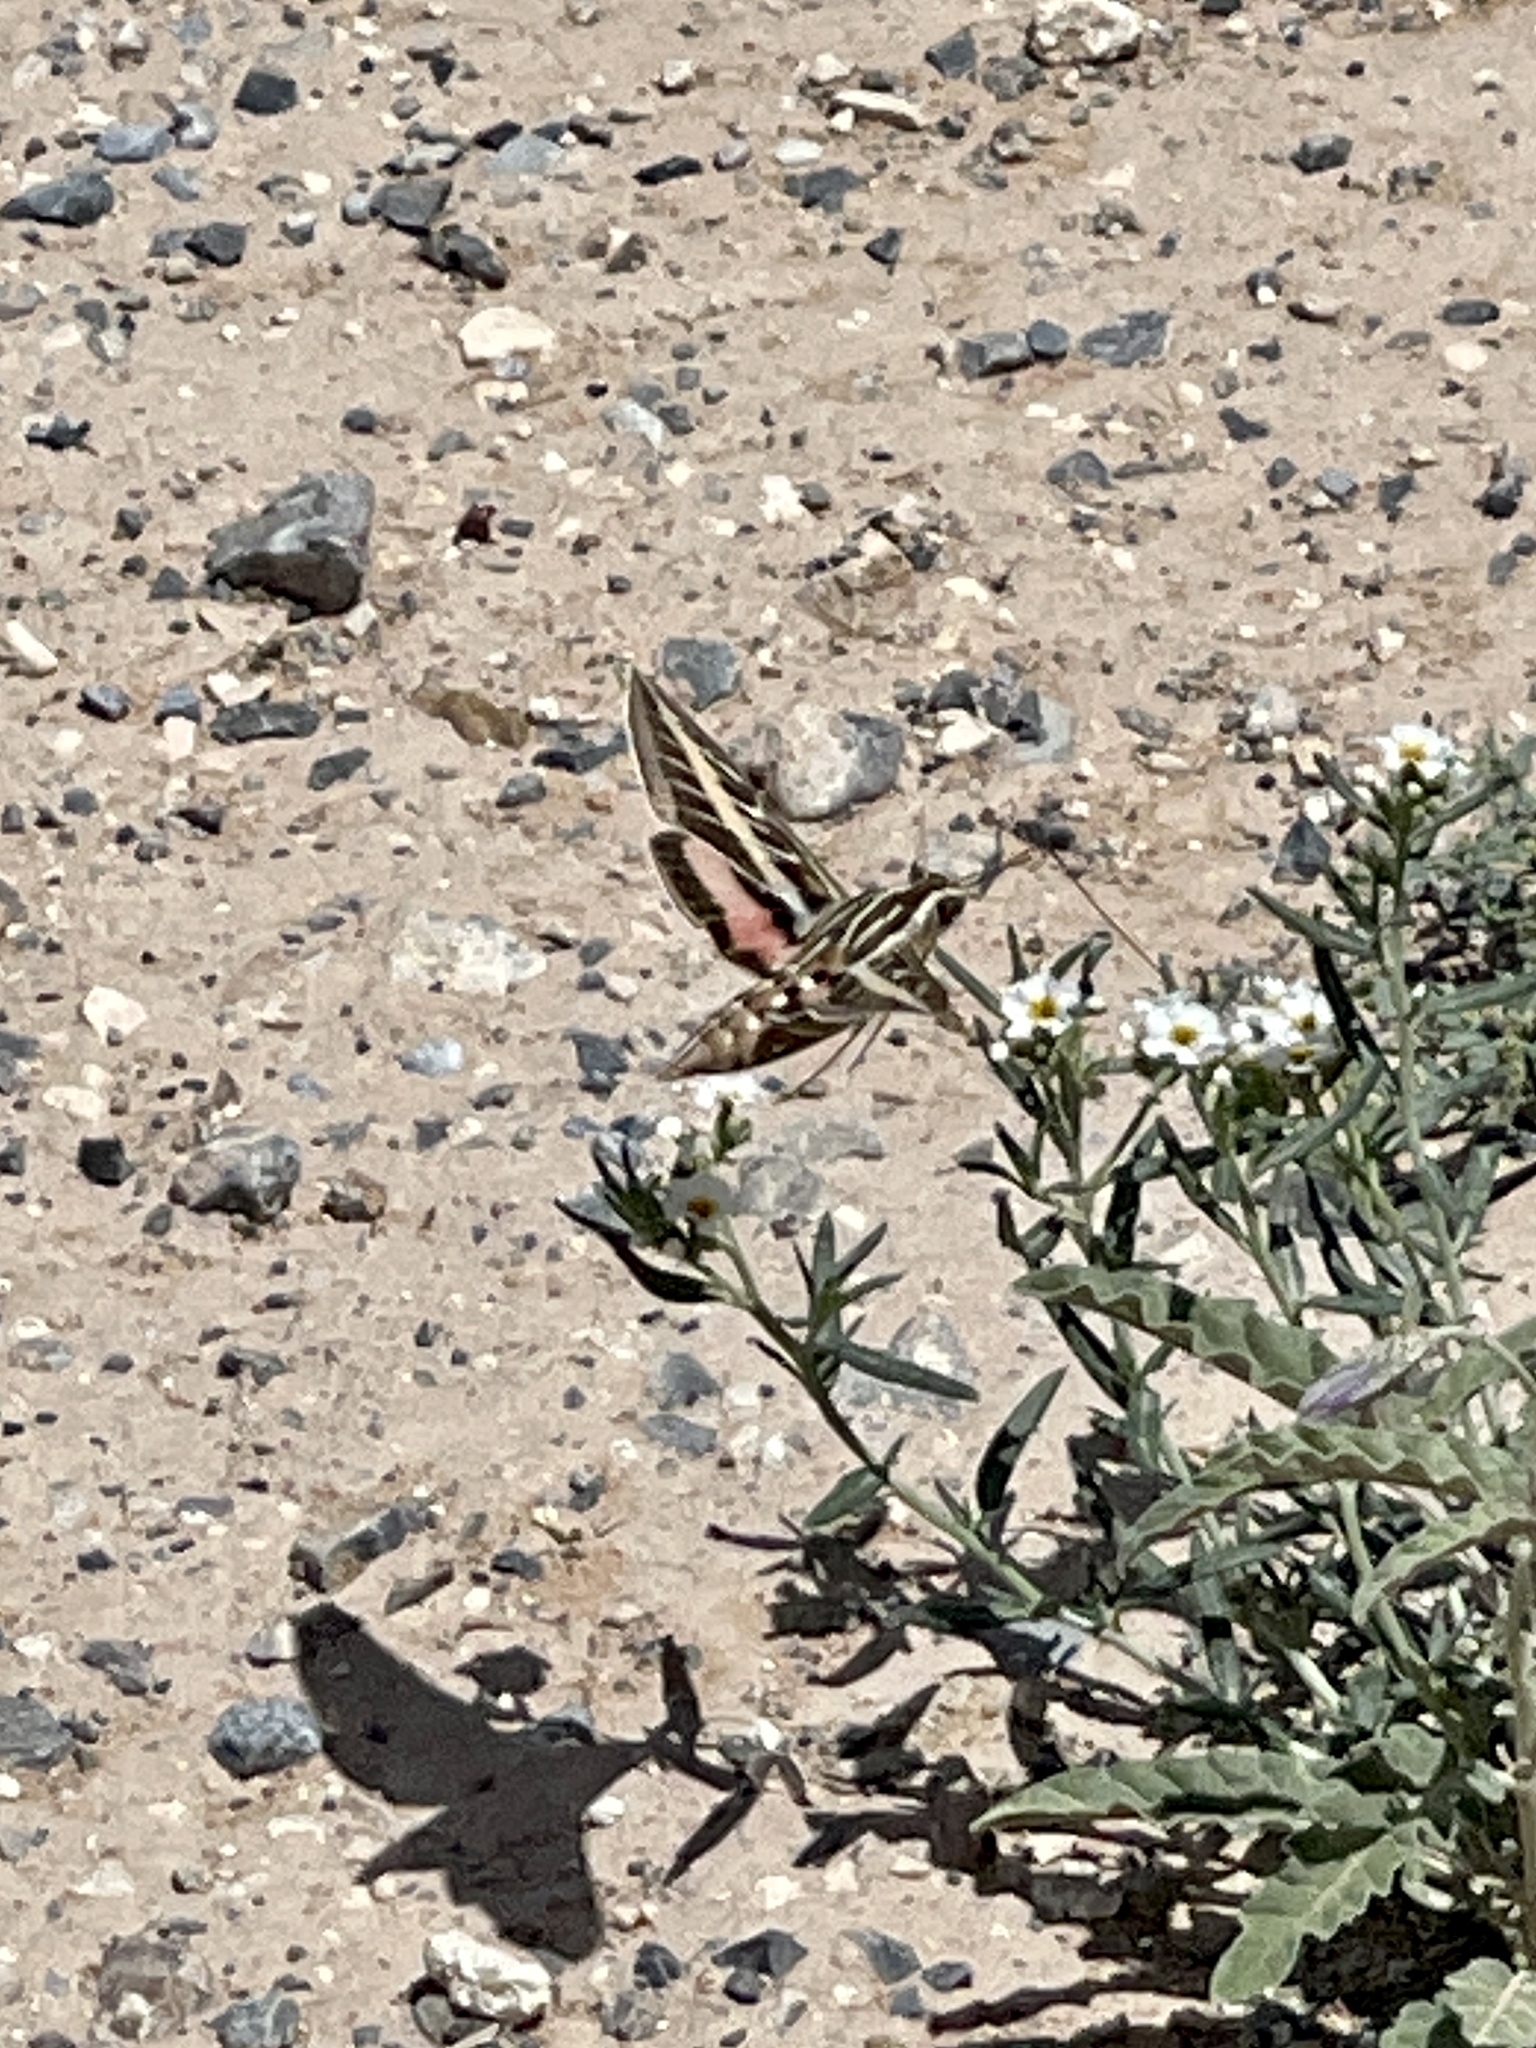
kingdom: Animalia
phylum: Arthropoda
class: Insecta
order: Lepidoptera
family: Sphingidae
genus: Hyles
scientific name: Hyles lineata
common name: White-lined sphinx
